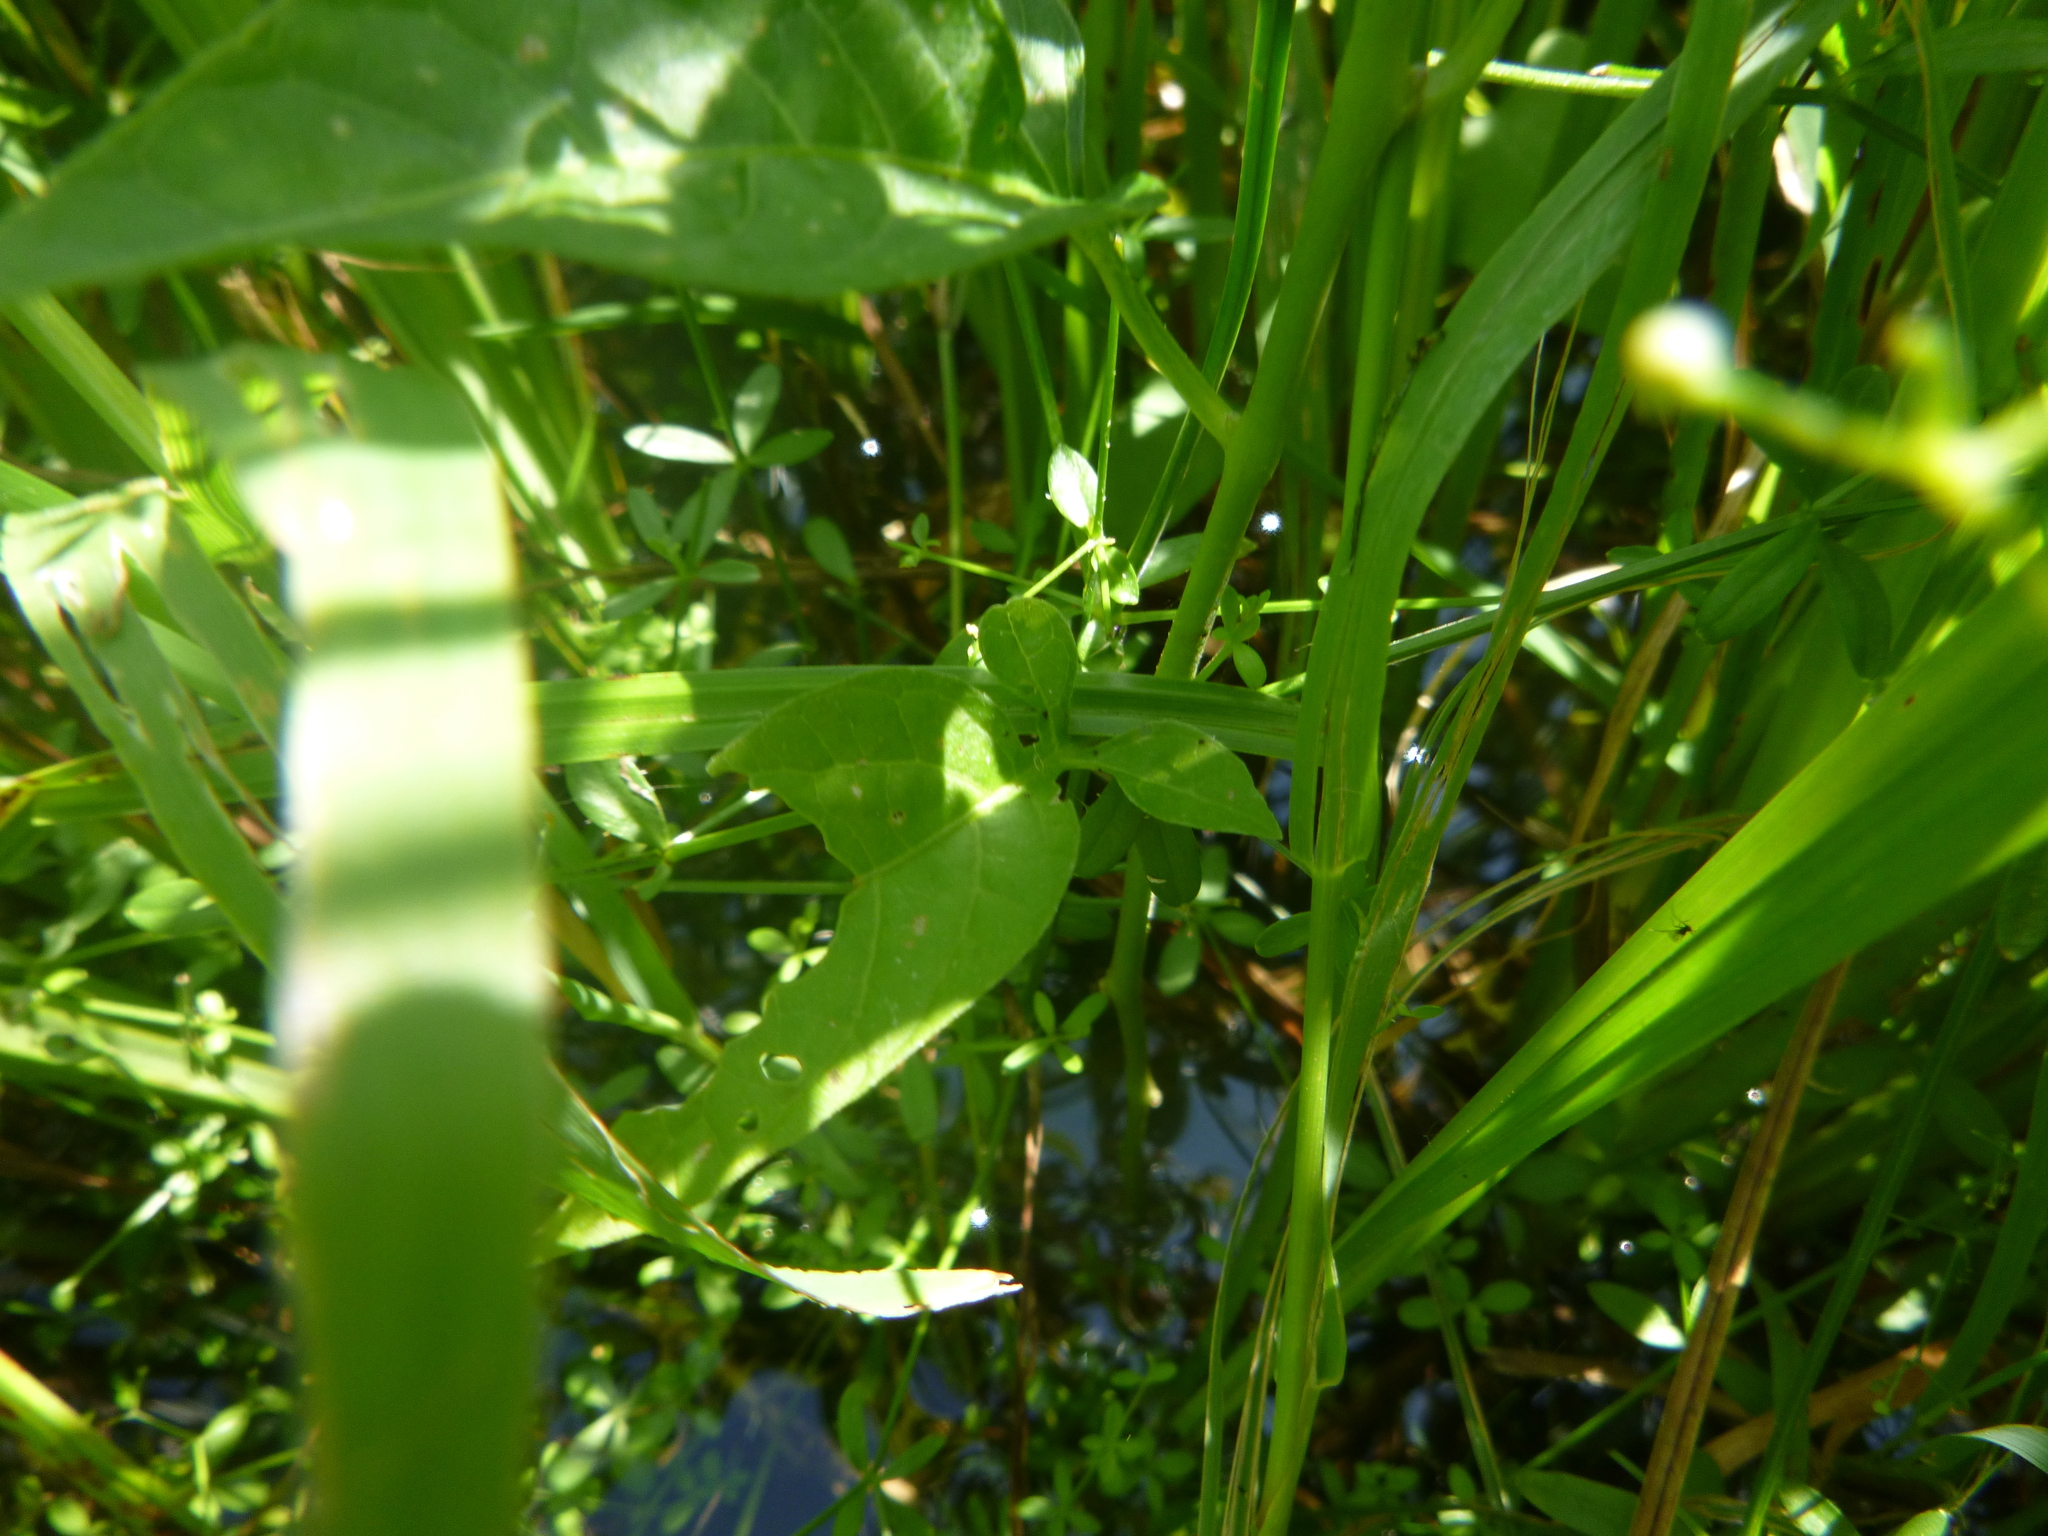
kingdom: Plantae
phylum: Tracheophyta
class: Magnoliopsida
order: Solanales
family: Solanaceae
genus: Solanum
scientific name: Solanum dulcamara
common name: Climbing nightshade
